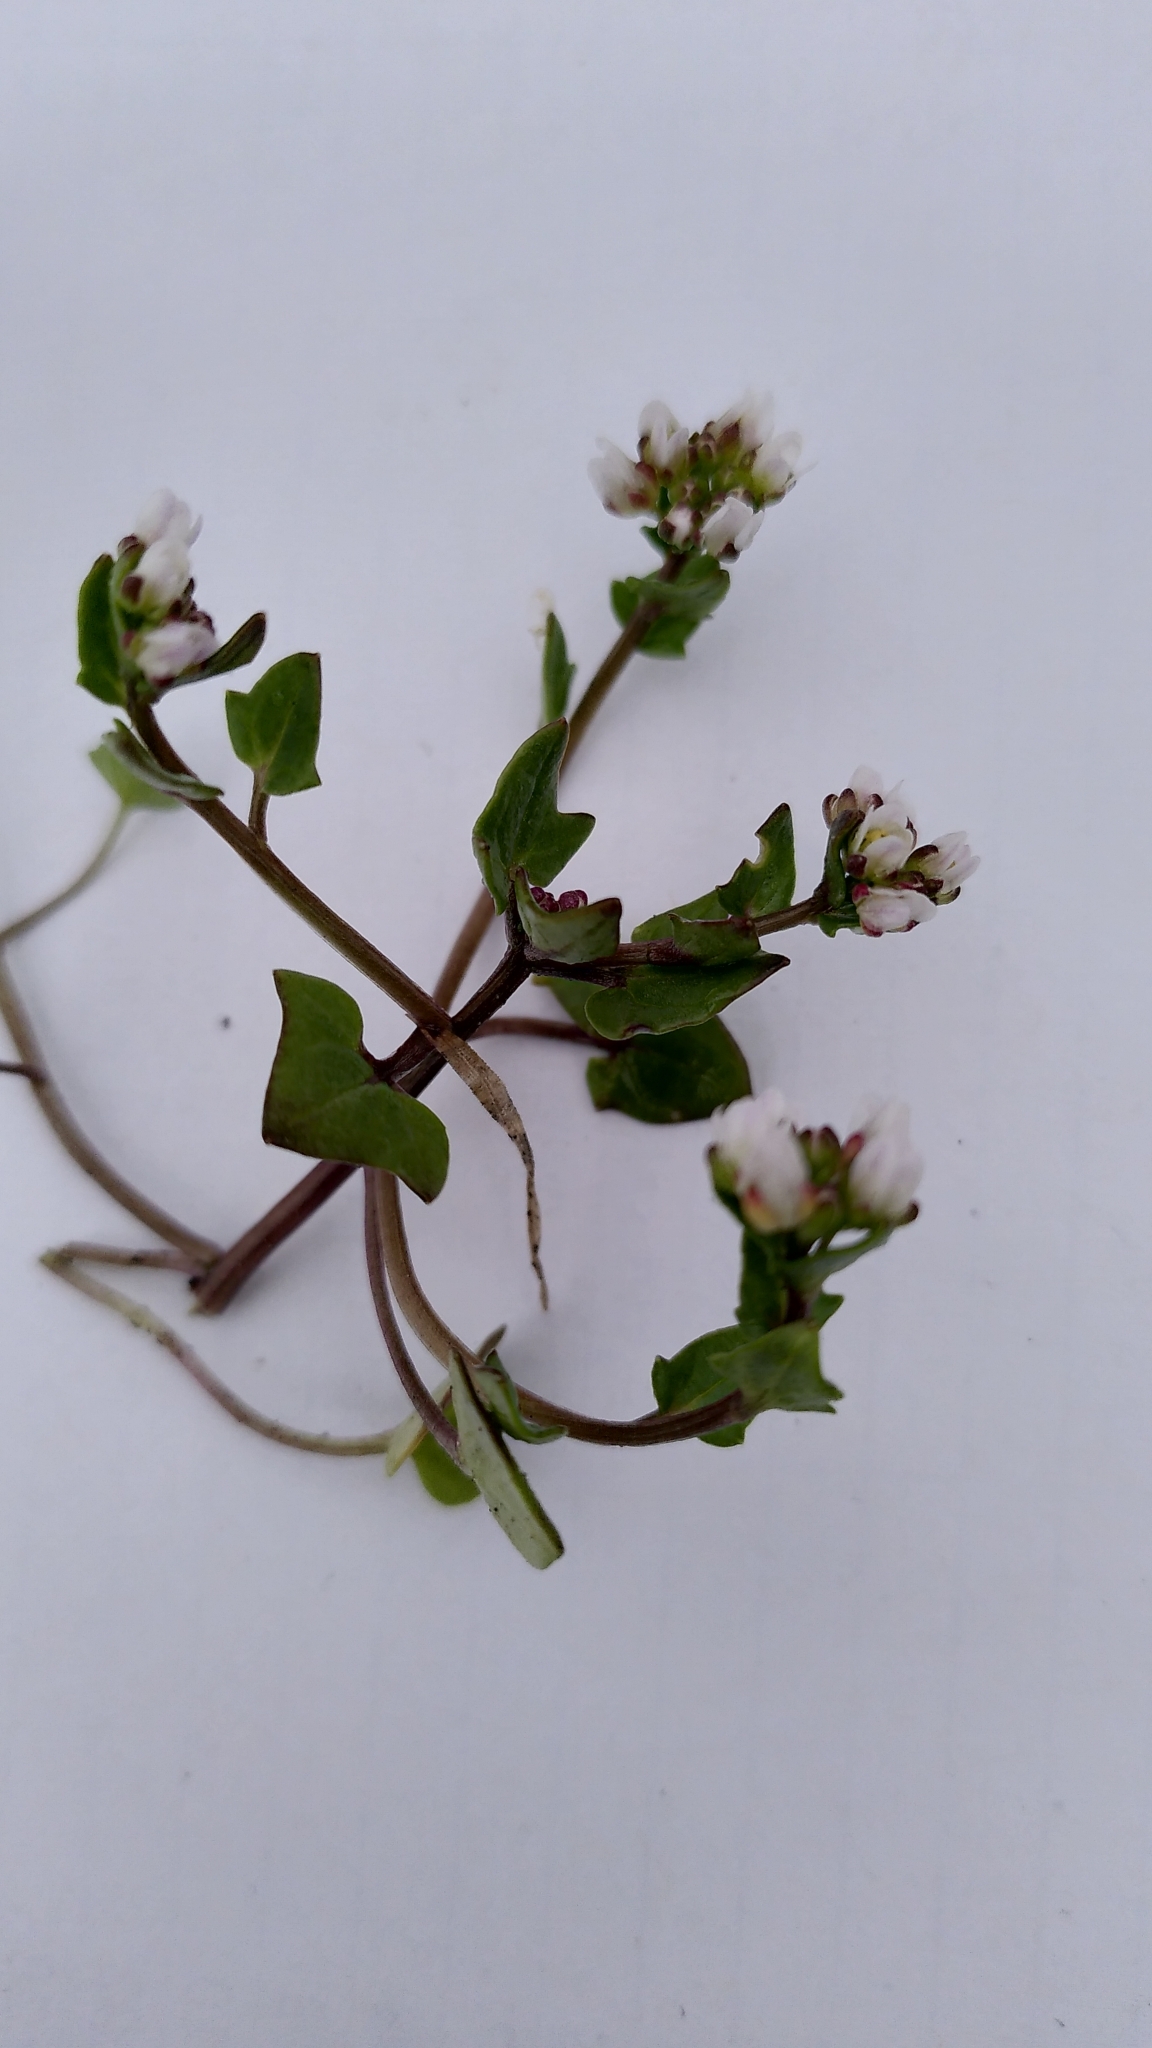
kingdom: Plantae
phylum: Tracheophyta
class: Magnoliopsida
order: Brassicales
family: Brassicaceae
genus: Cochlearia
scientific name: Cochlearia danica
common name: Early scurvygrass
